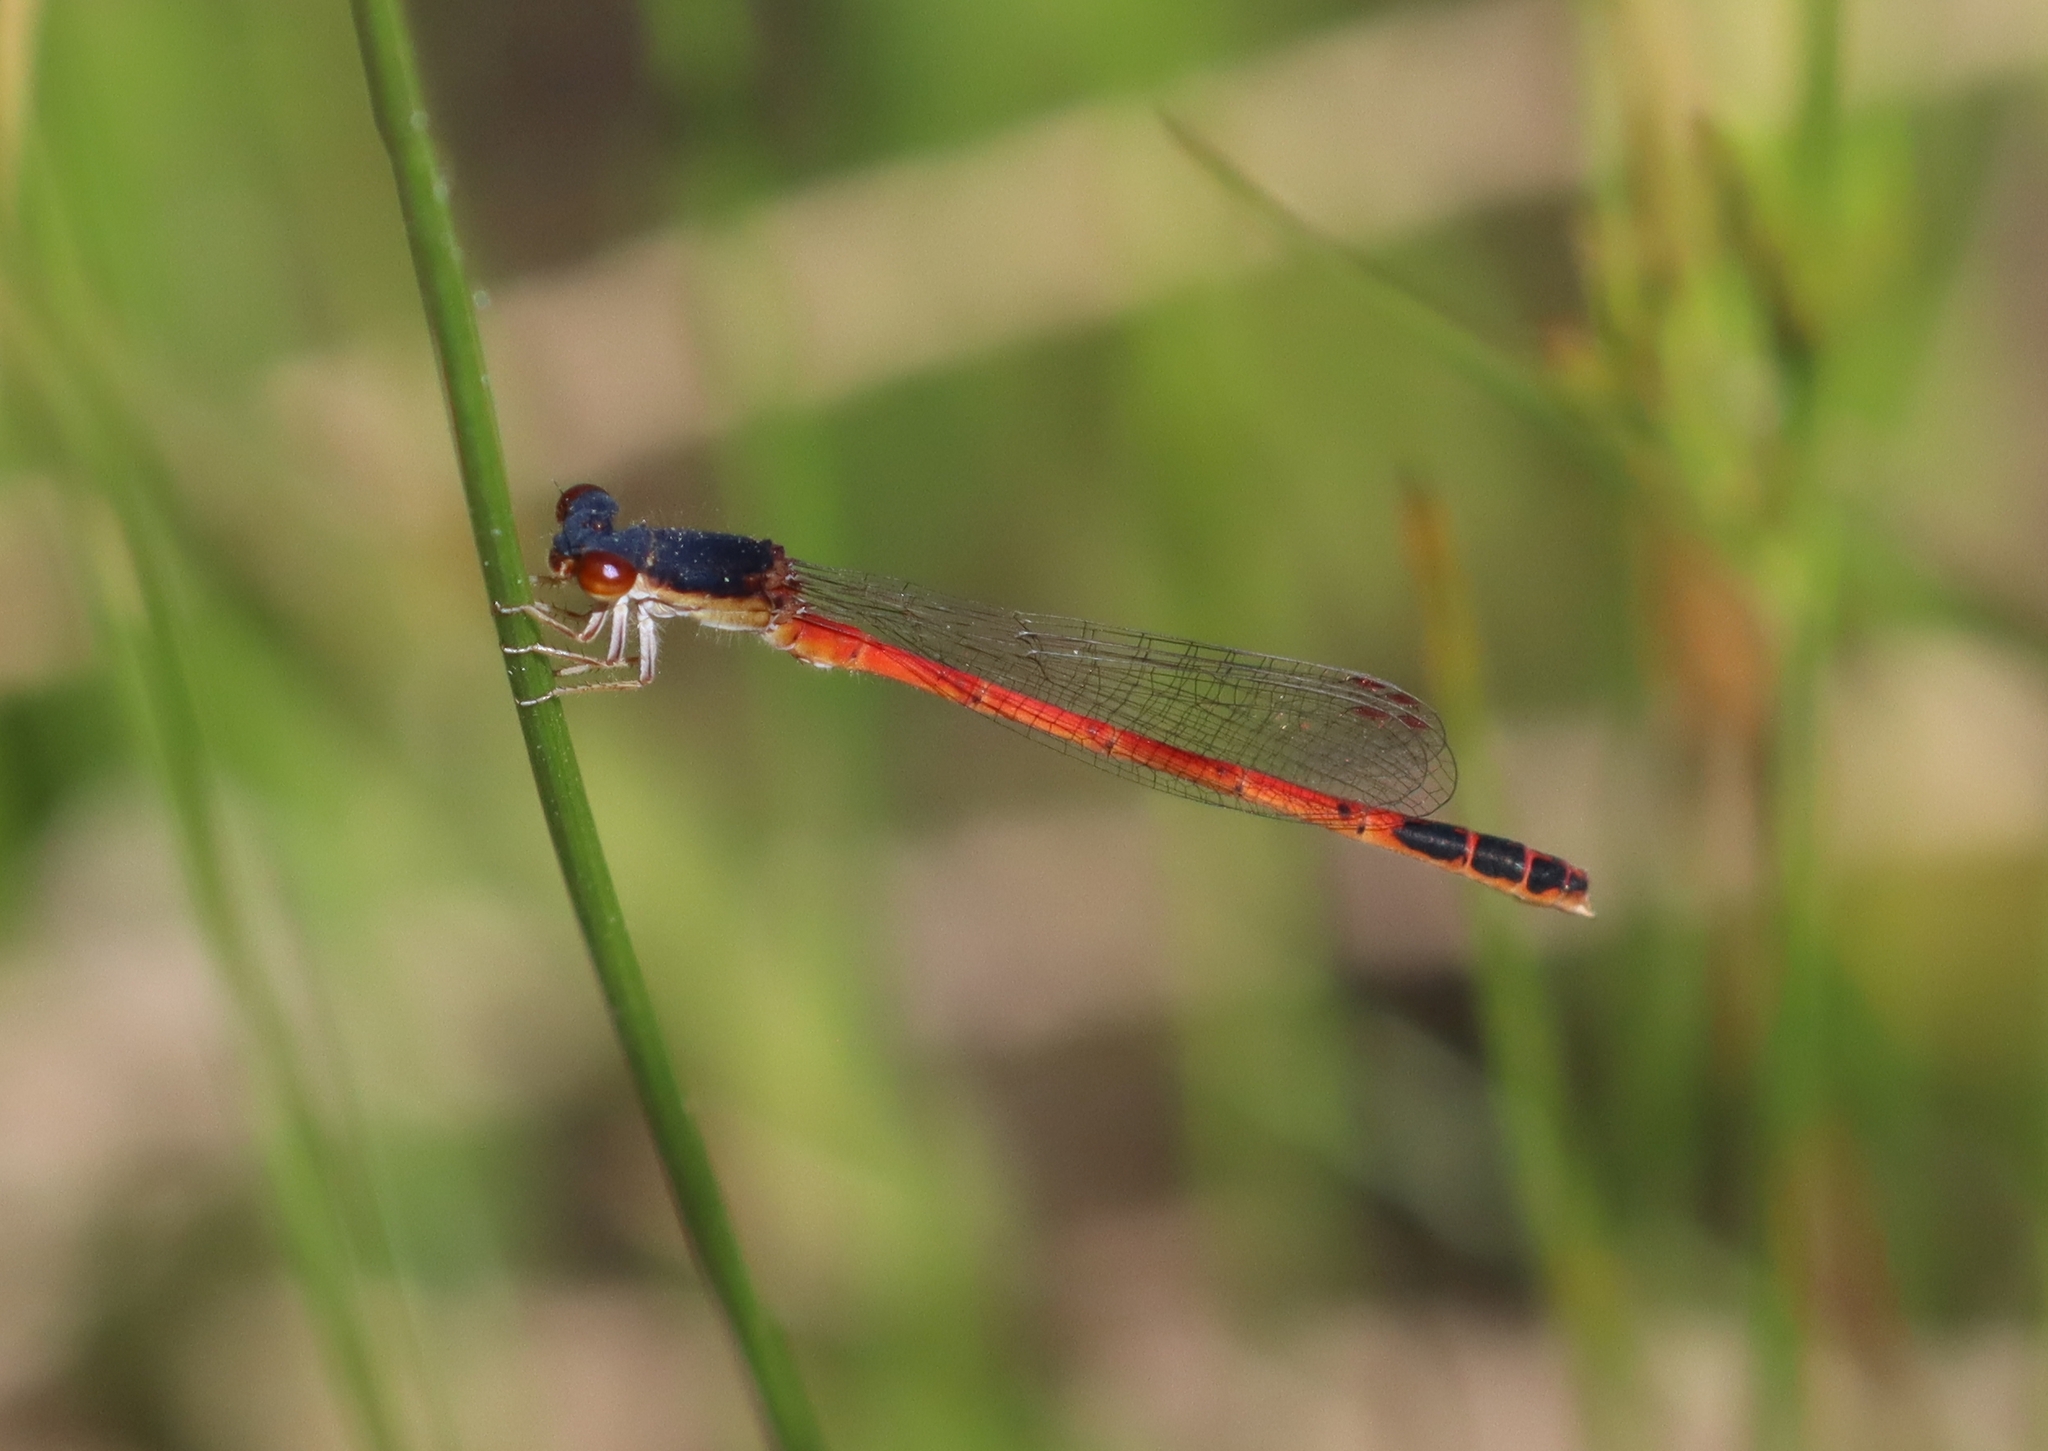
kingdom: Animalia
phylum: Arthropoda
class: Insecta
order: Odonata
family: Coenagrionidae
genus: Amphiagrion
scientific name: Amphiagrion saucium
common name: Eastern red damsel
